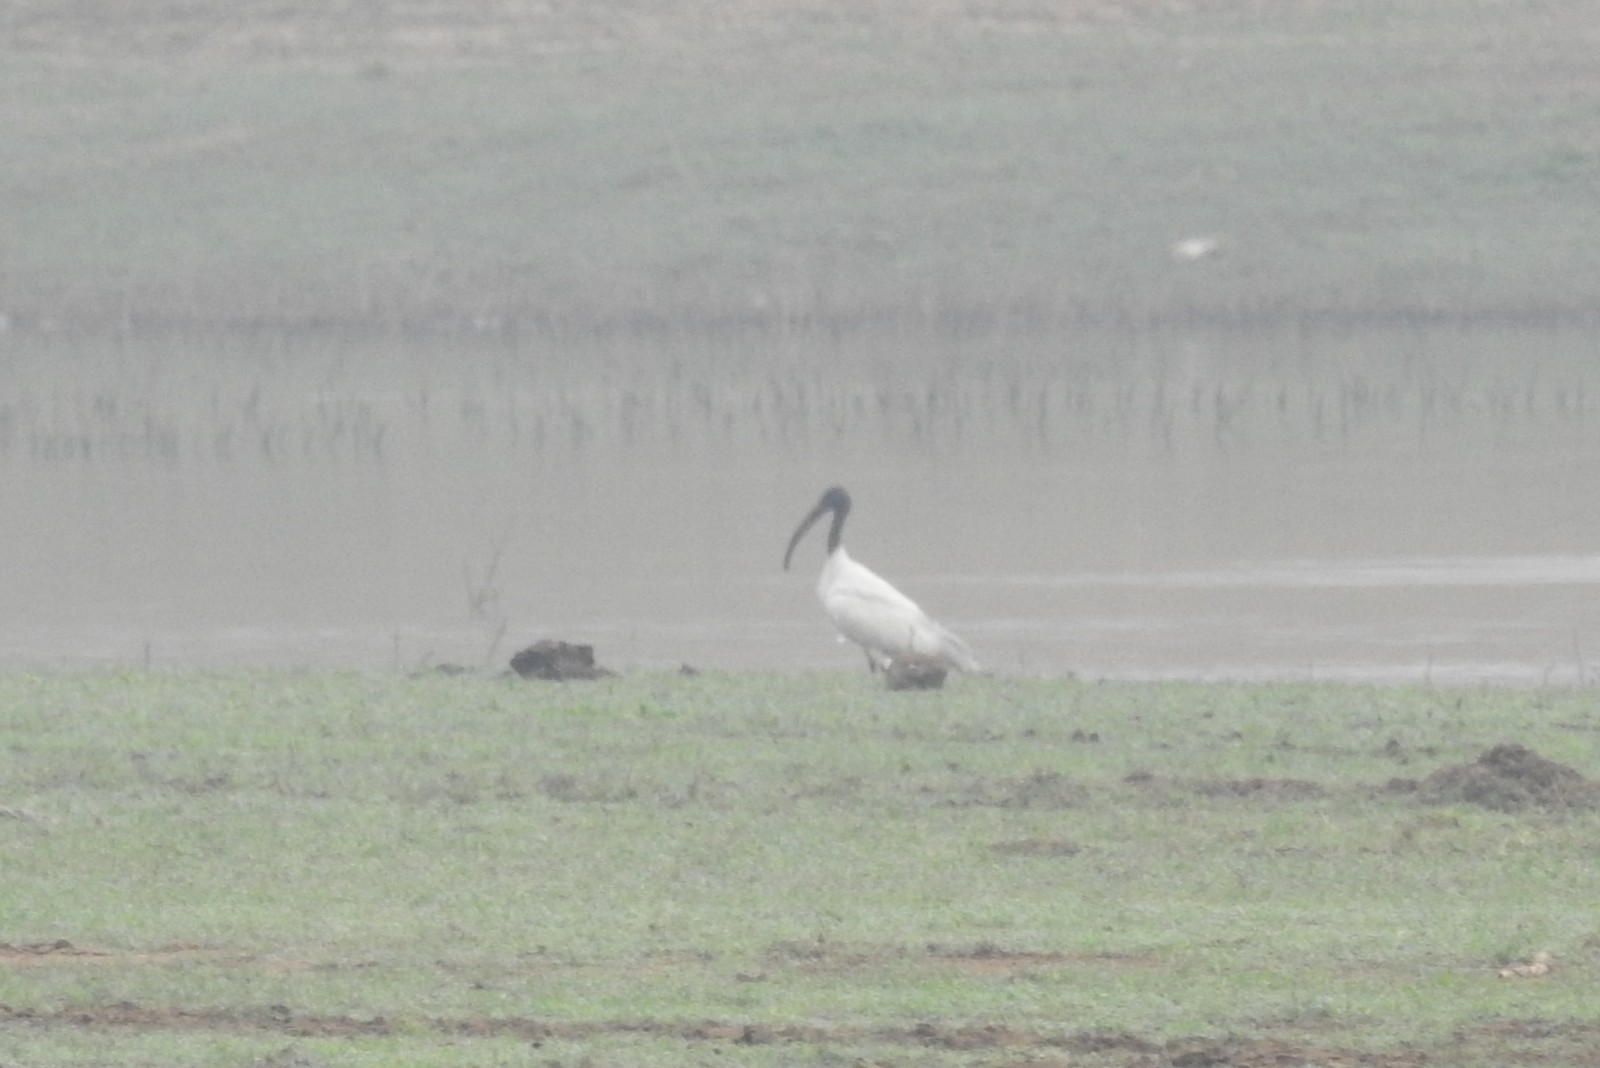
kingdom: Animalia
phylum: Chordata
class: Aves
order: Pelecaniformes
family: Threskiornithidae
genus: Threskiornis
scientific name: Threskiornis melanocephalus
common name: Black-headed ibis
